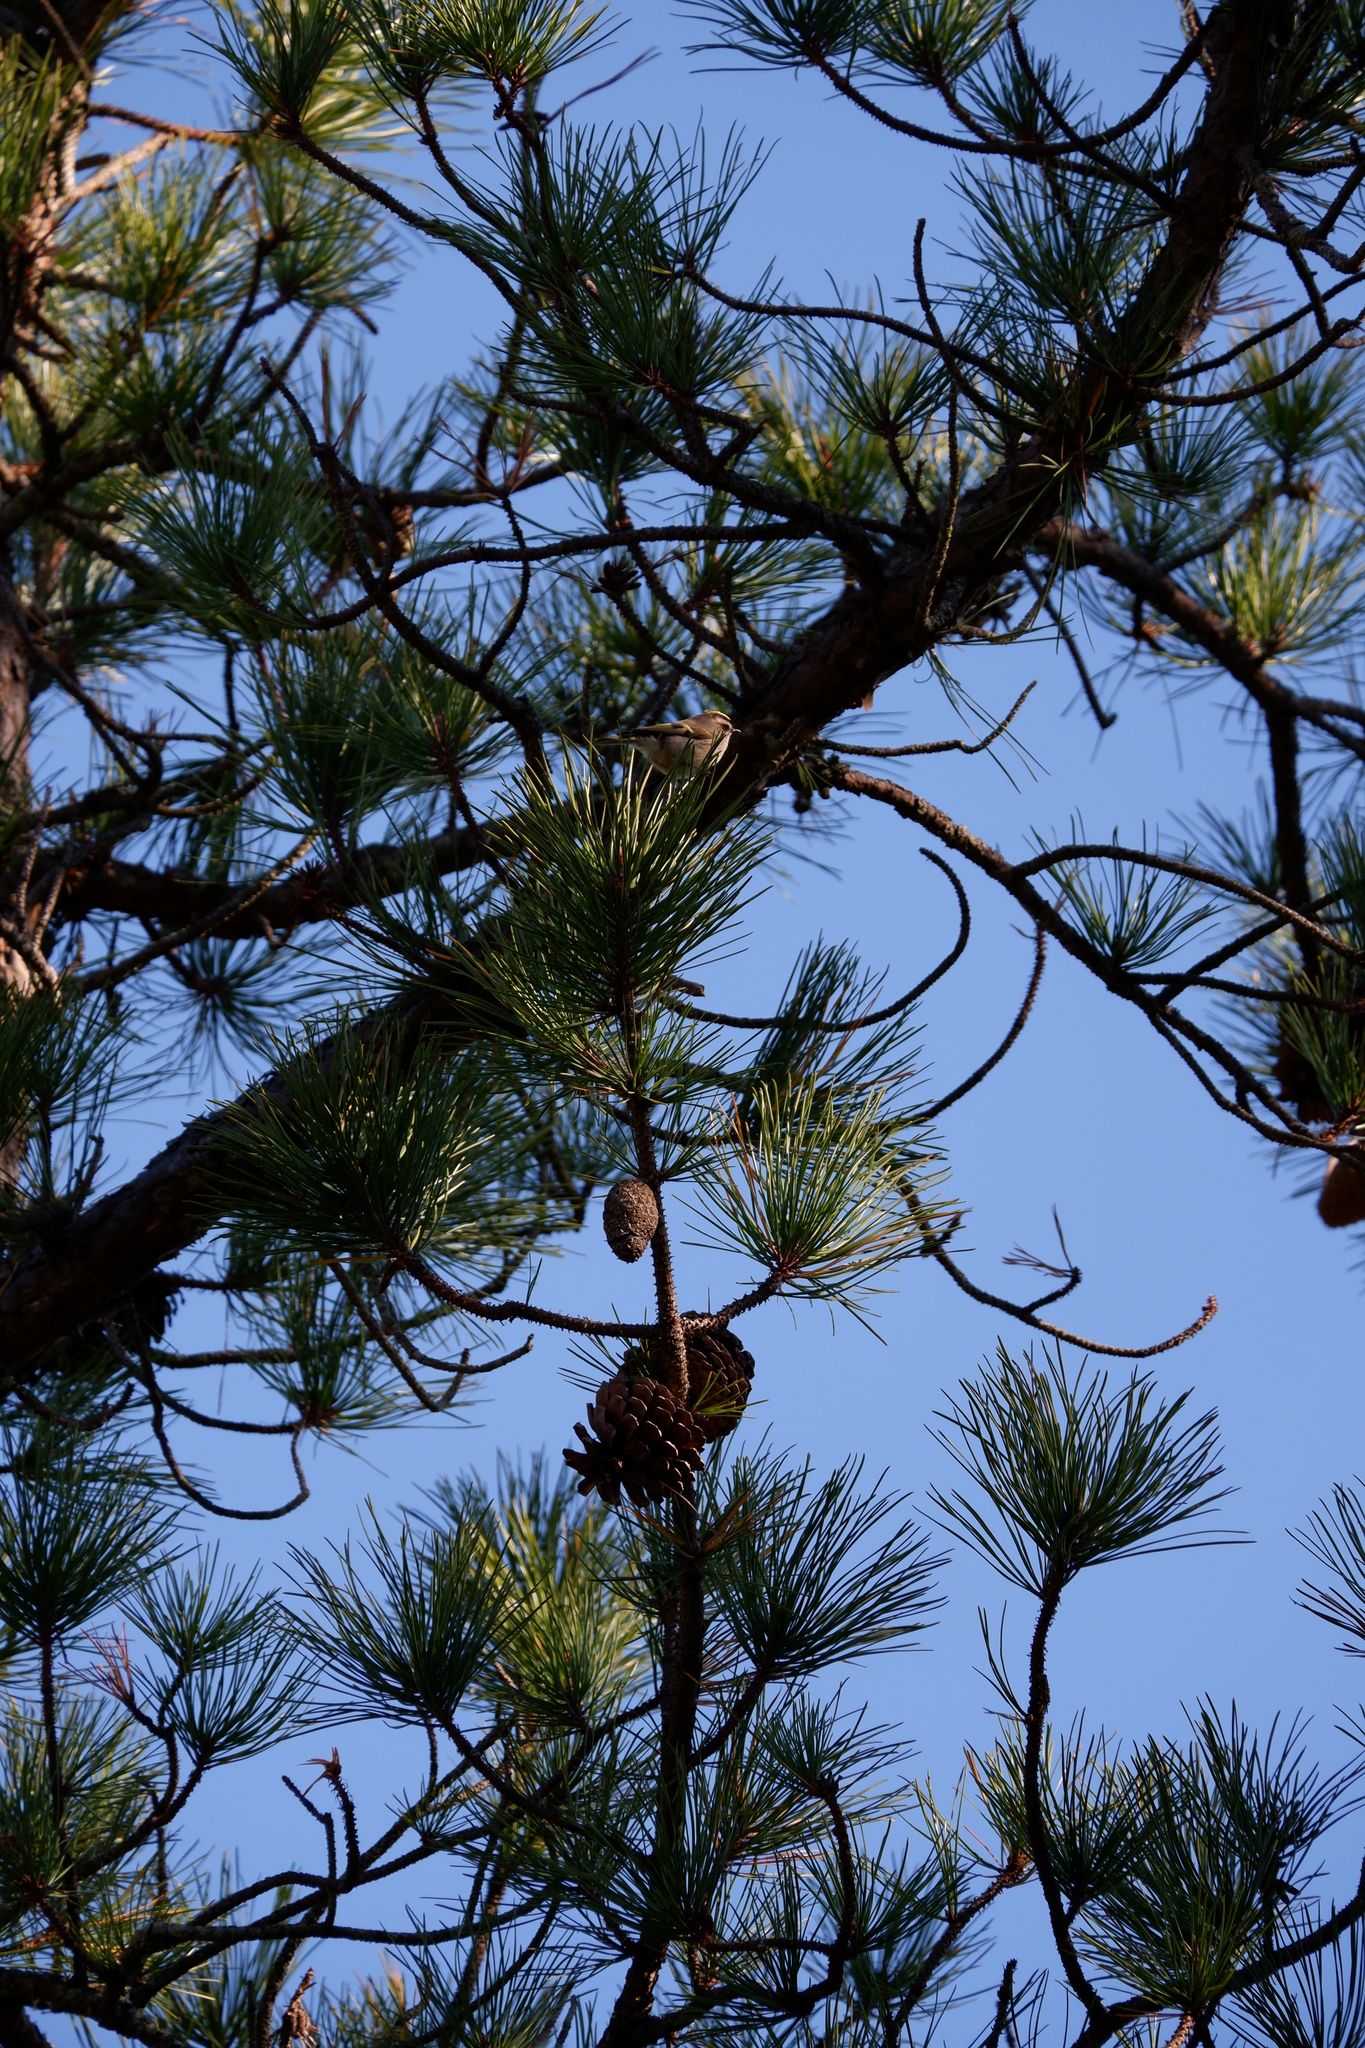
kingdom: Animalia
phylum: Chordata
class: Aves
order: Passeriformes
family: Regulidae
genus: Regulus
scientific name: Regulus satrapa
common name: Golden-crowned kinglet
